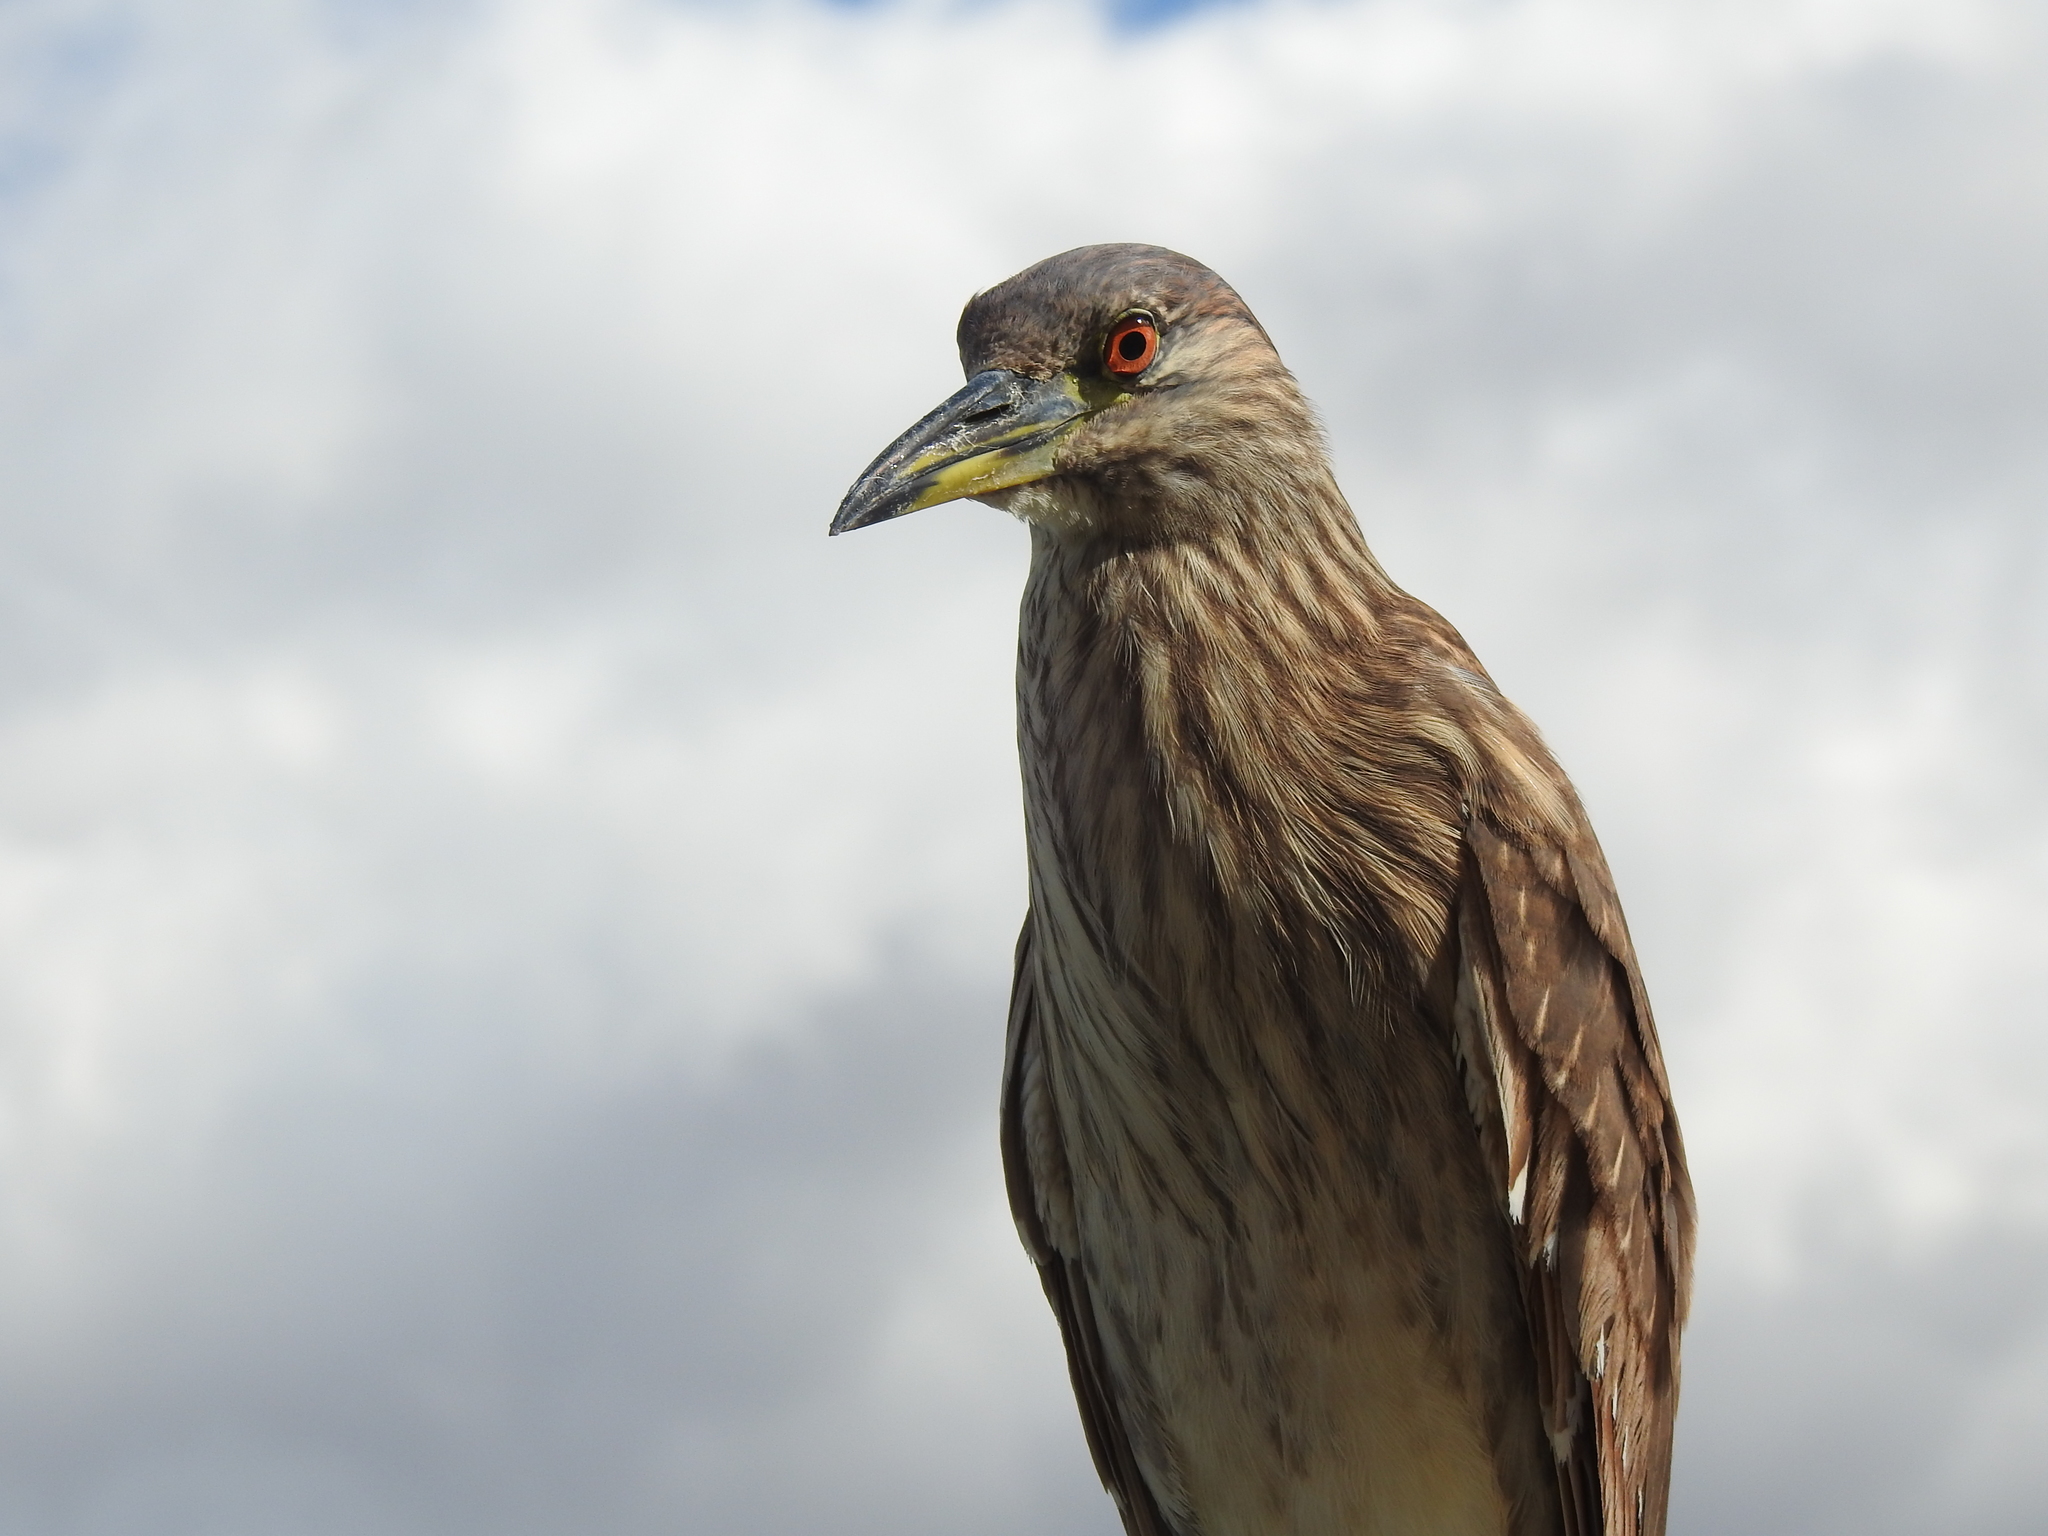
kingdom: Animalia
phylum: Chordata
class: Aves
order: Pelecaniformes
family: Ardeidae
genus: Nycticorax
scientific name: Nycticorax nycticorax
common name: Black-crowned night heron
